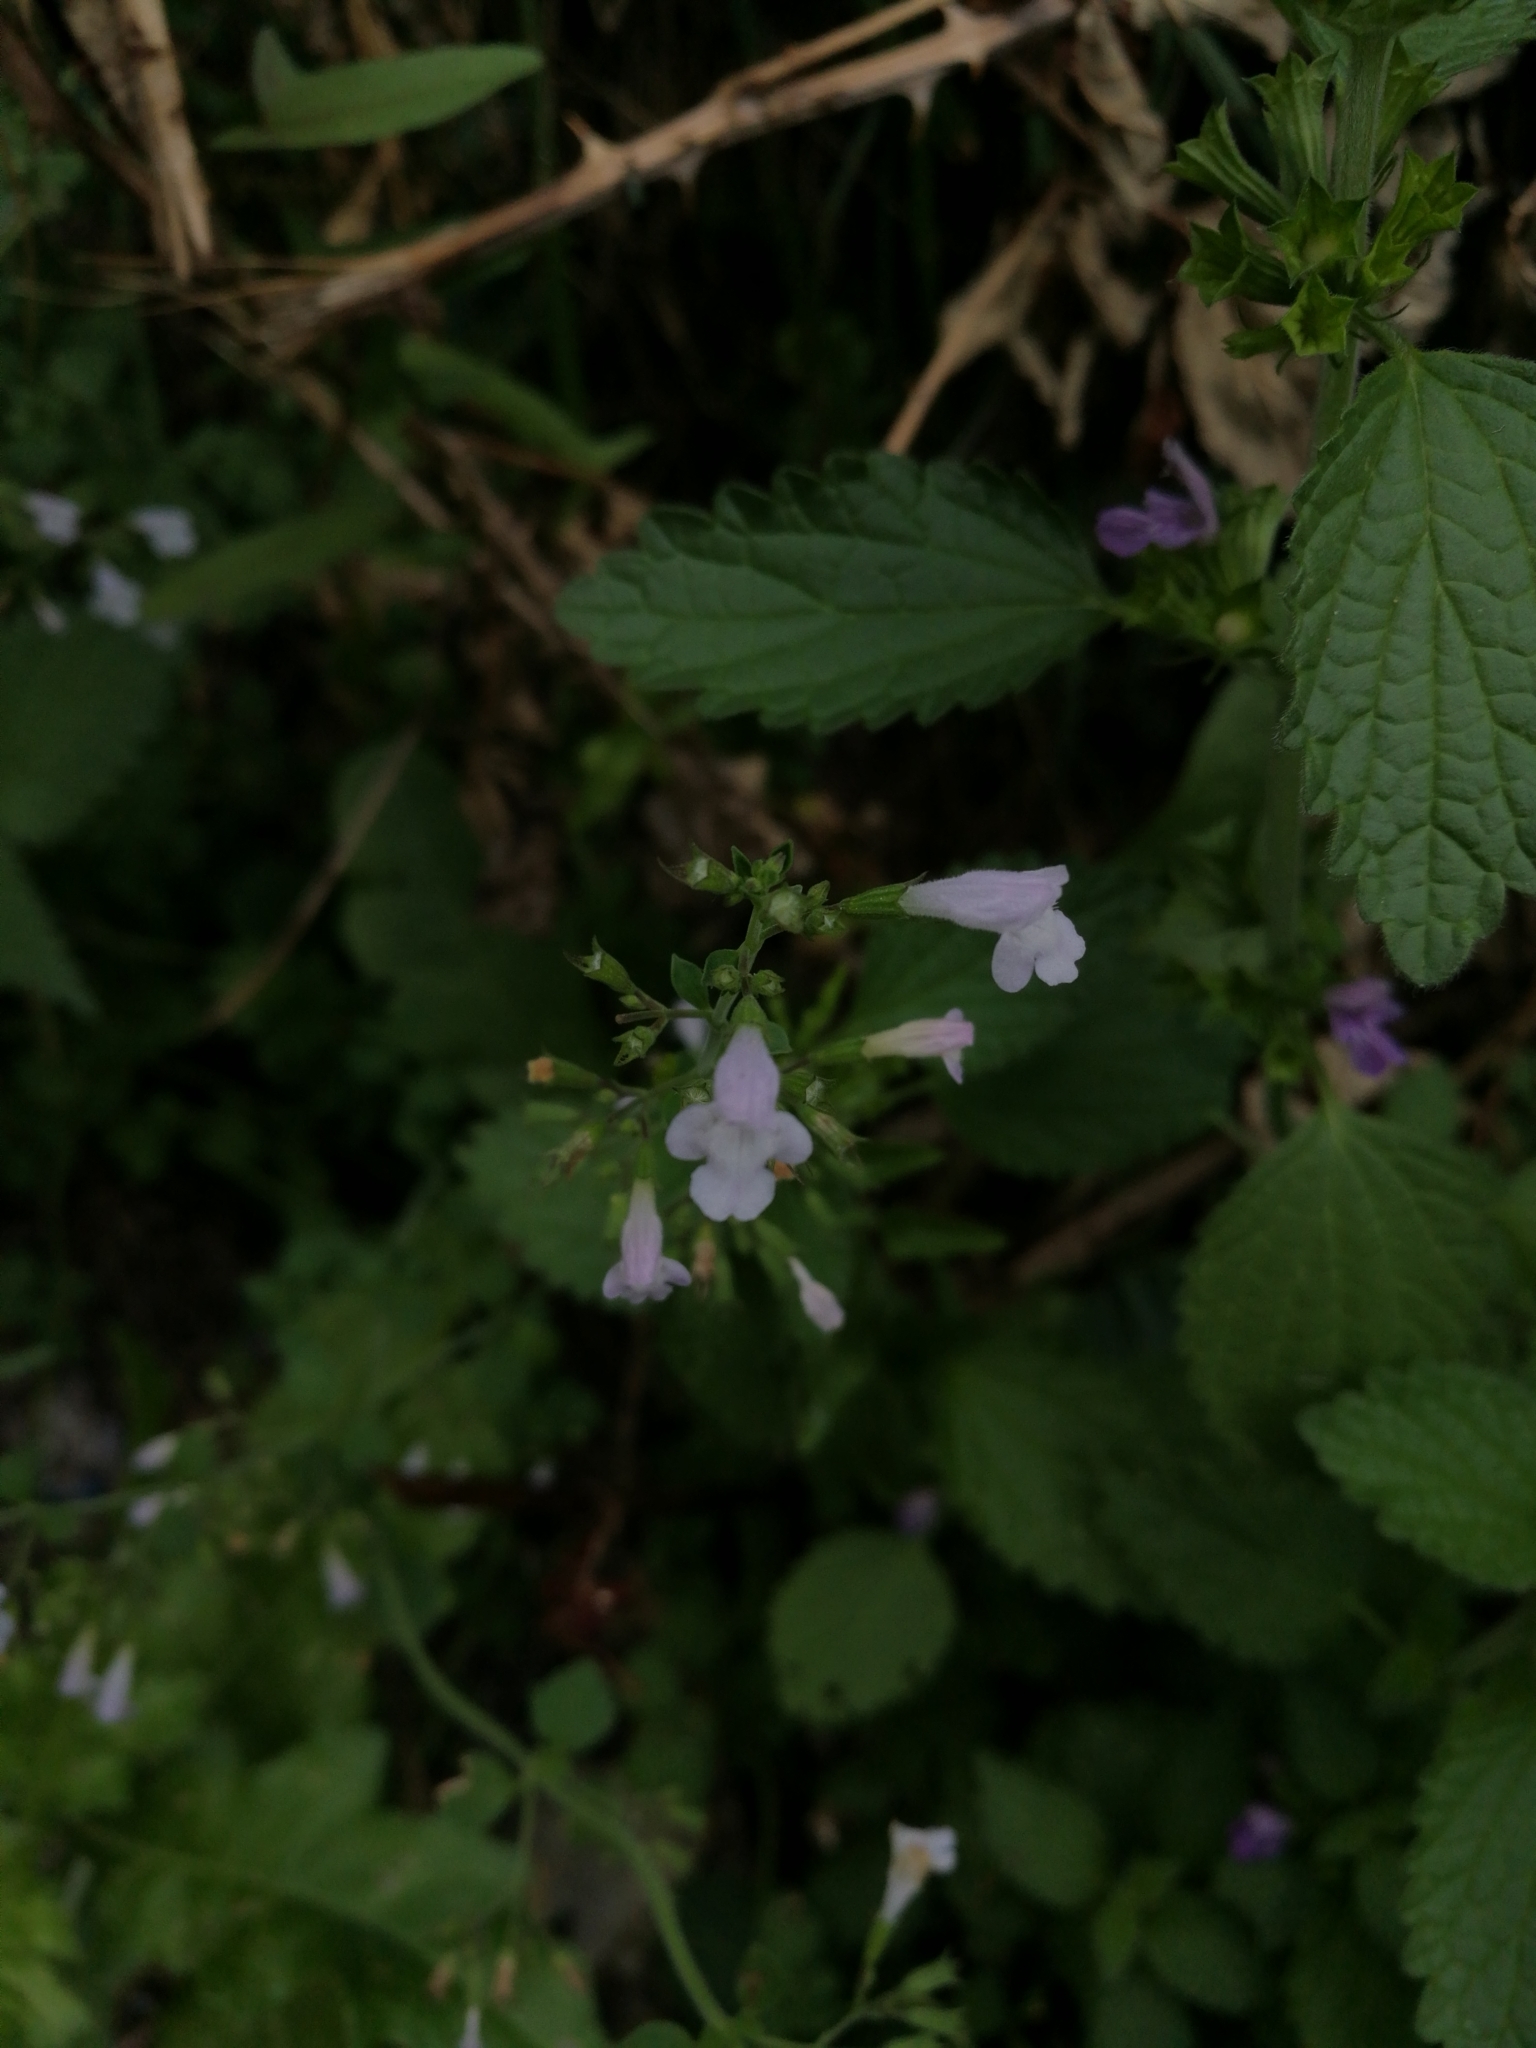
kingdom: Plantae
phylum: Tracheophyta
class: Magnoliopsida
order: Lamiales
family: Lamiaceae
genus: Clinopodium
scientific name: Clinopodium nepeta
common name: Lesser calamint
